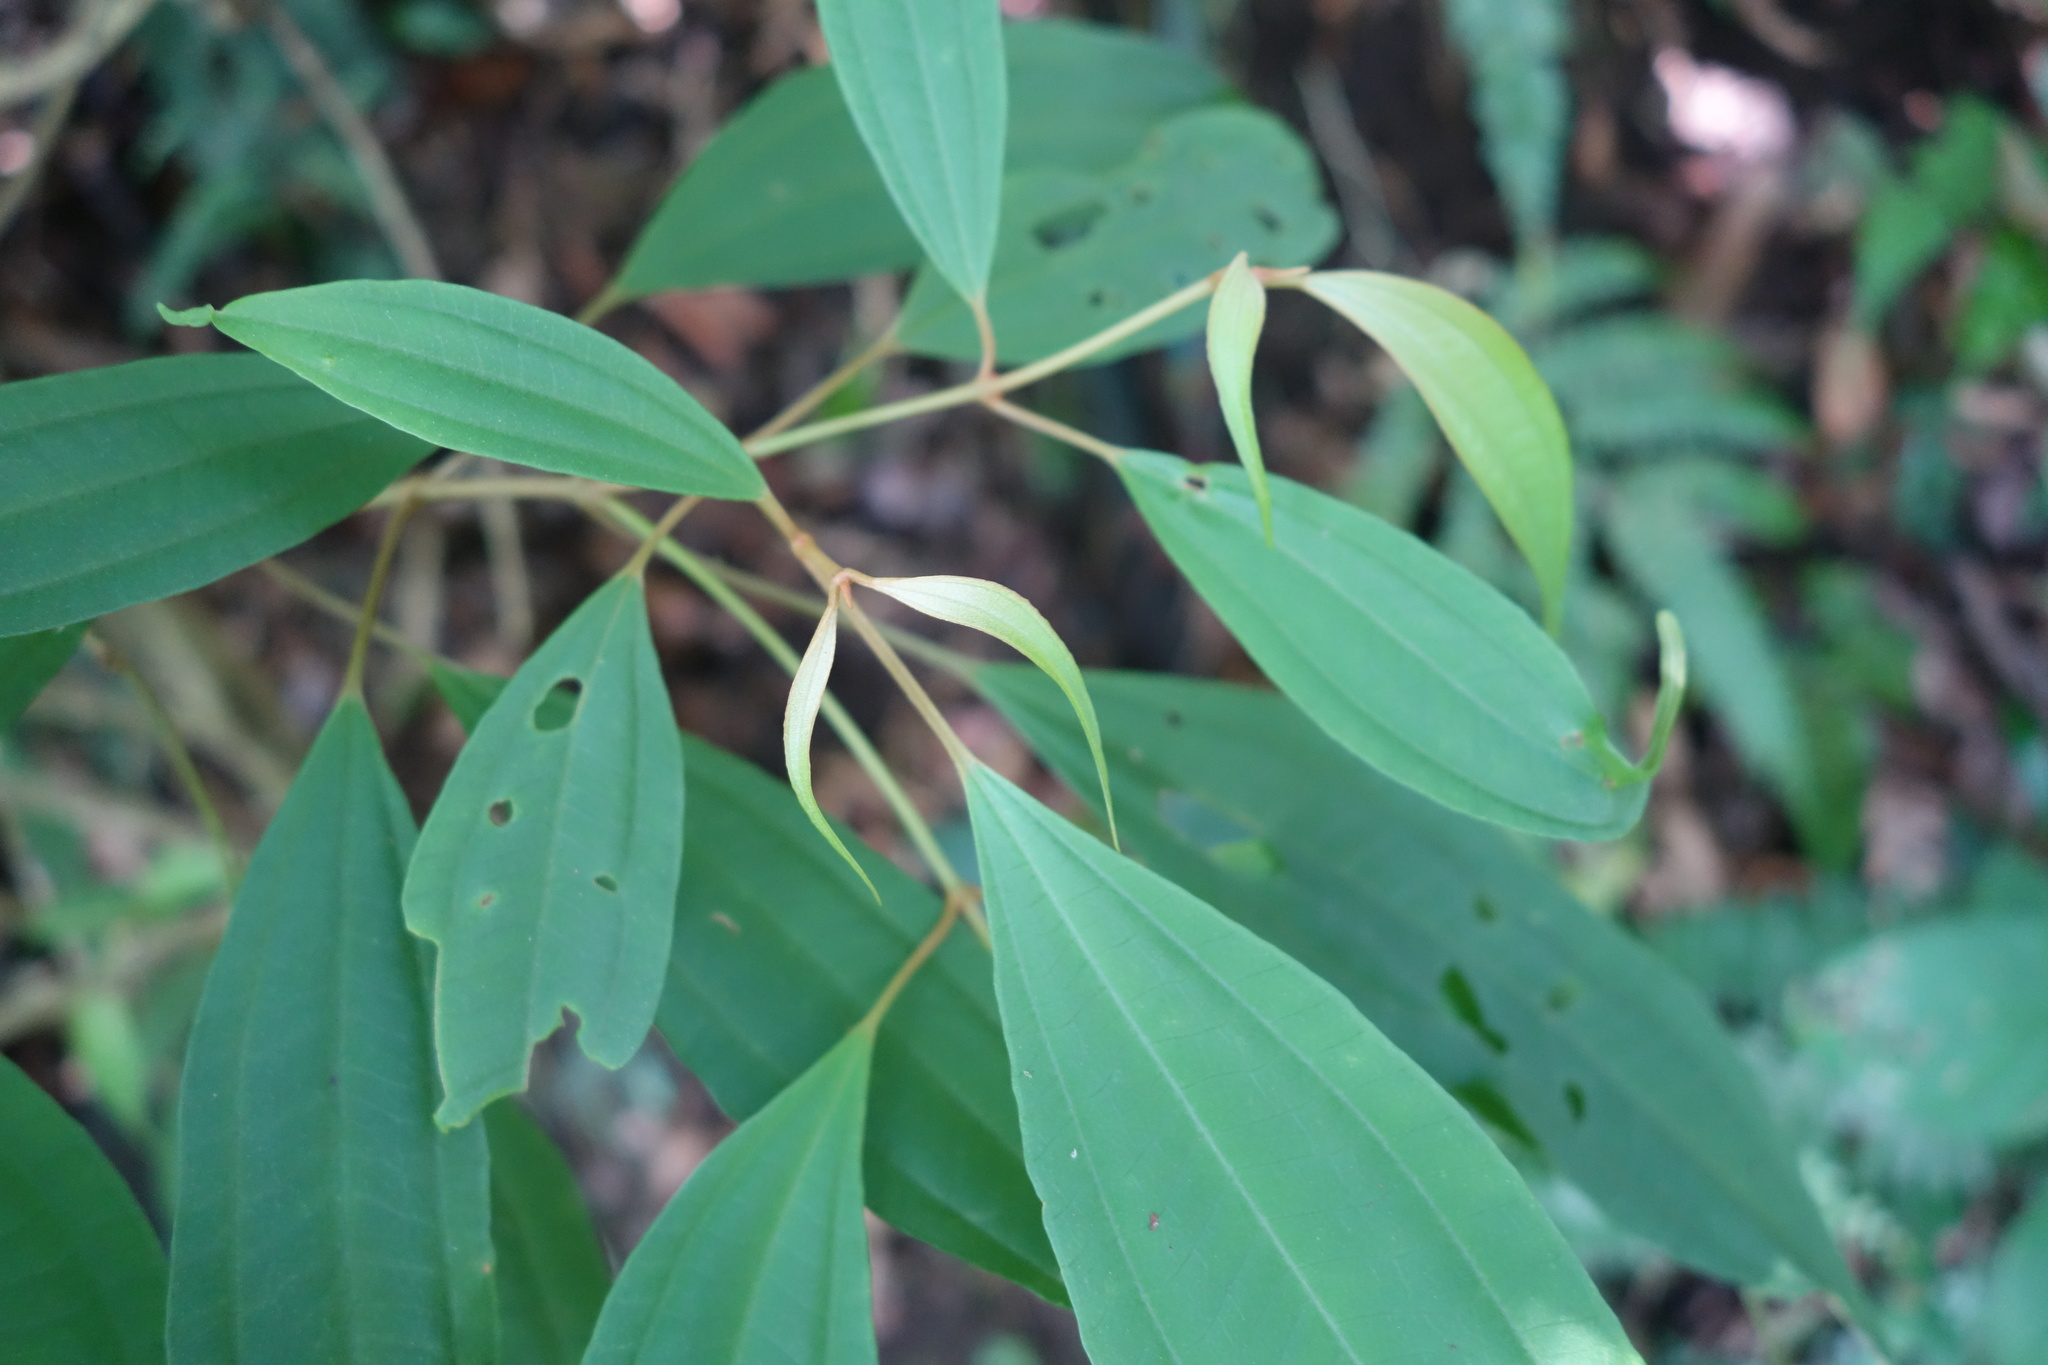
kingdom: Plantae
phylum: Tracheophyta
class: Magnoliopsida
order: Myrtales
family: Melastomataceae
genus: Blastus
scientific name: Blastus cochinchinensis
